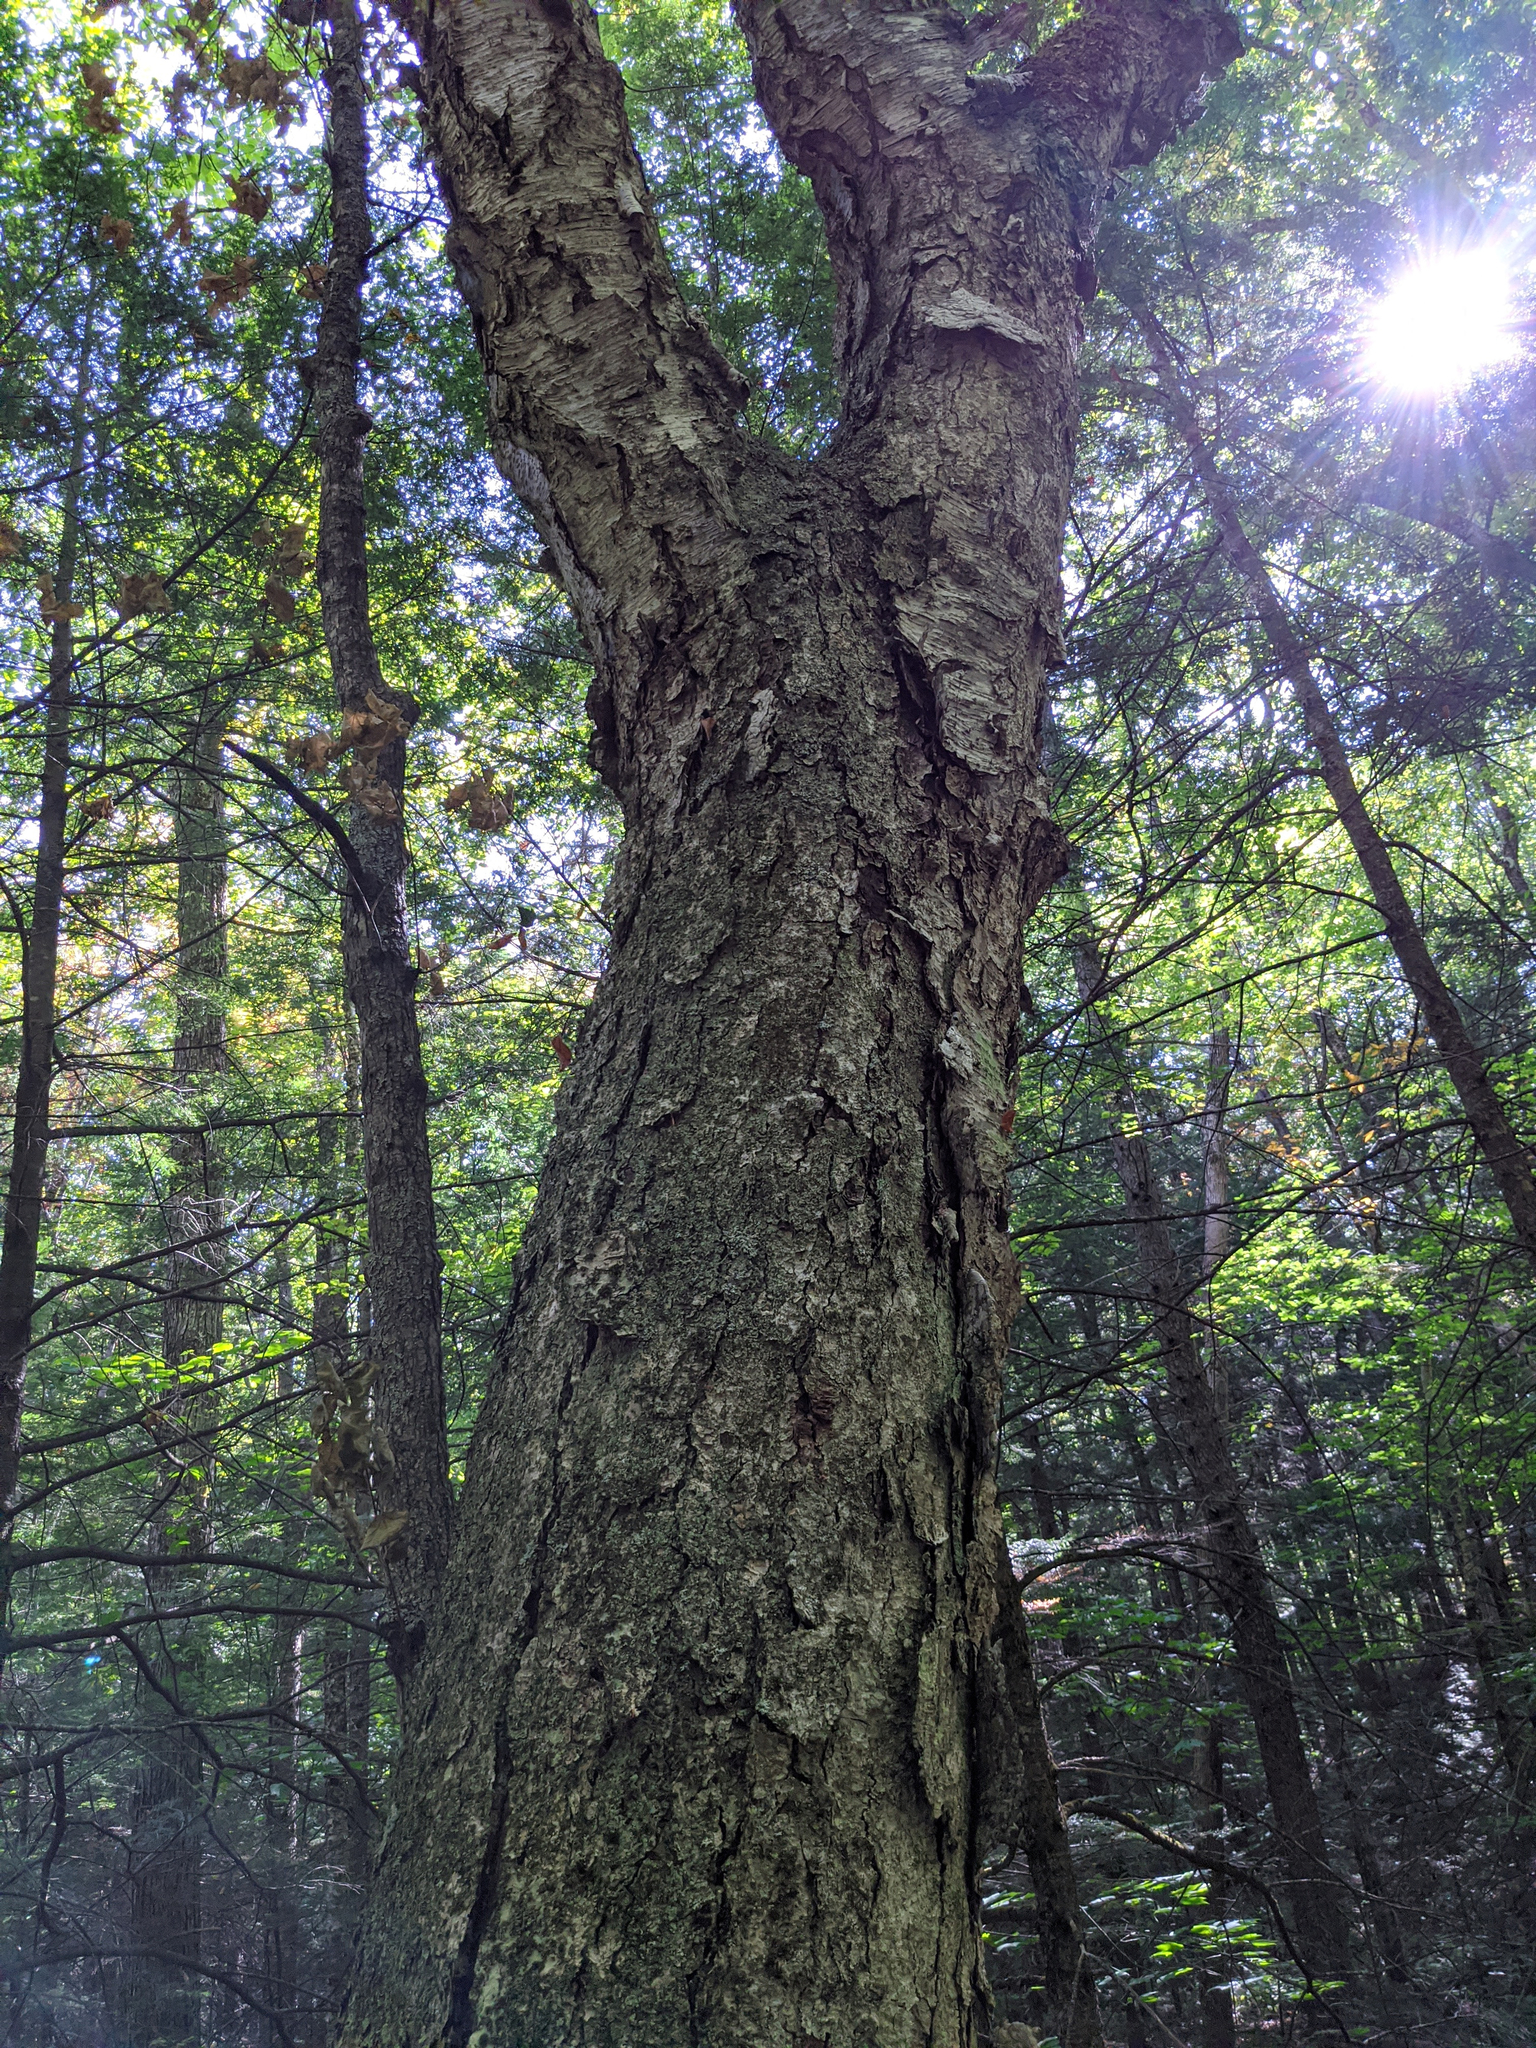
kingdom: Plantae
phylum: Tracheophyta
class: Magnoliopsida
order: Fagales
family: Betulaceae
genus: Betula
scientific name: Betula alleghaniensis
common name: Yellow birch
